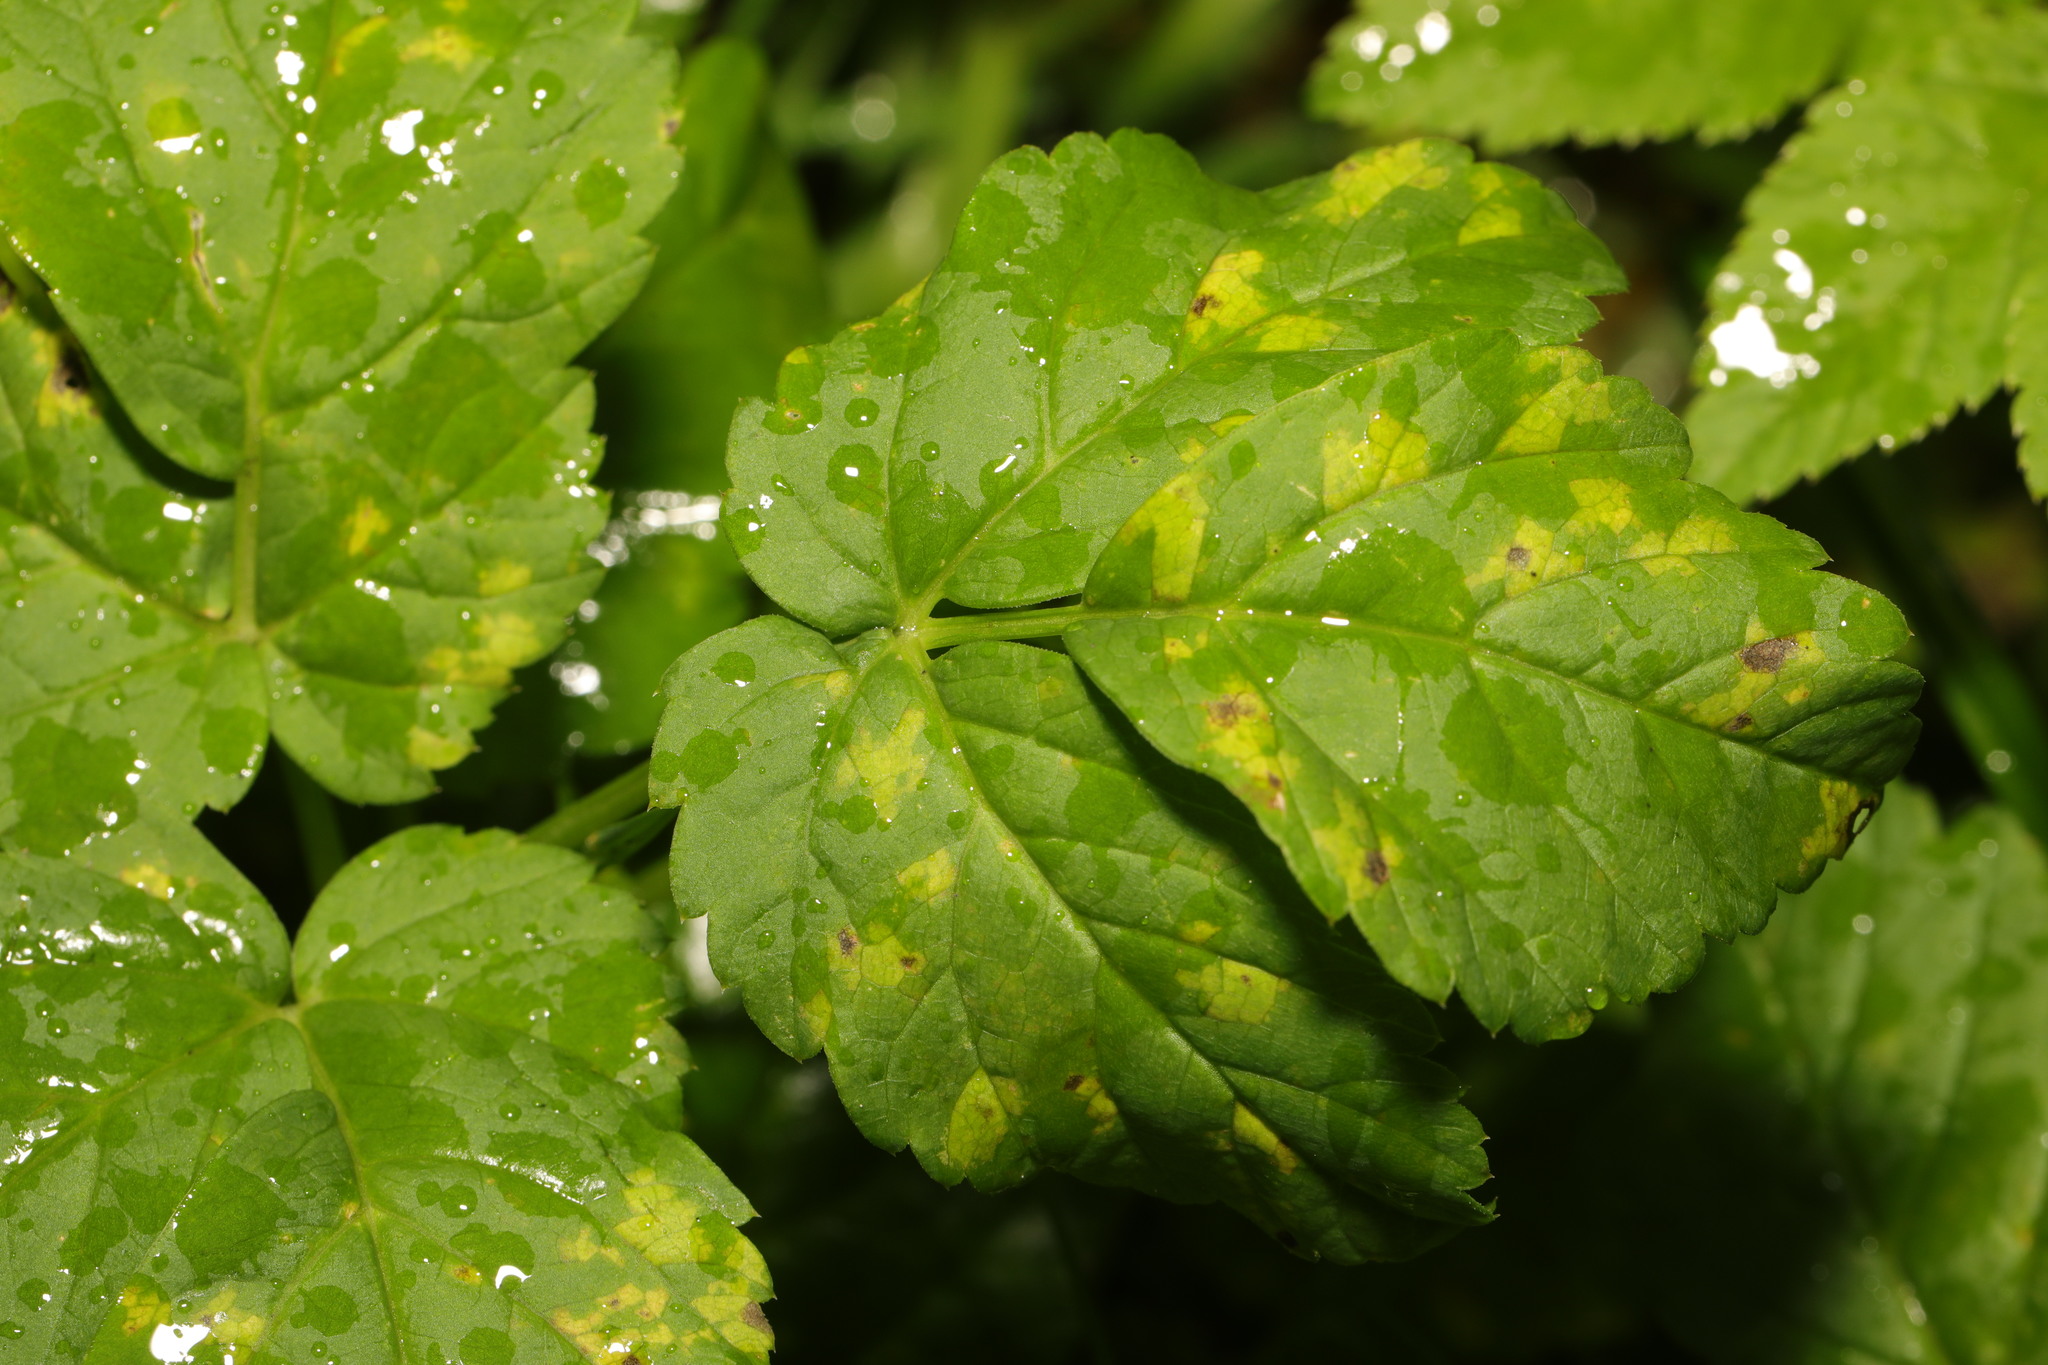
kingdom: Chromista
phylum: Oomycota
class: Peronosporea
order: Peronosporales
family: Peronosporaceae
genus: Peronospora
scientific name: Peronospora crustosa
